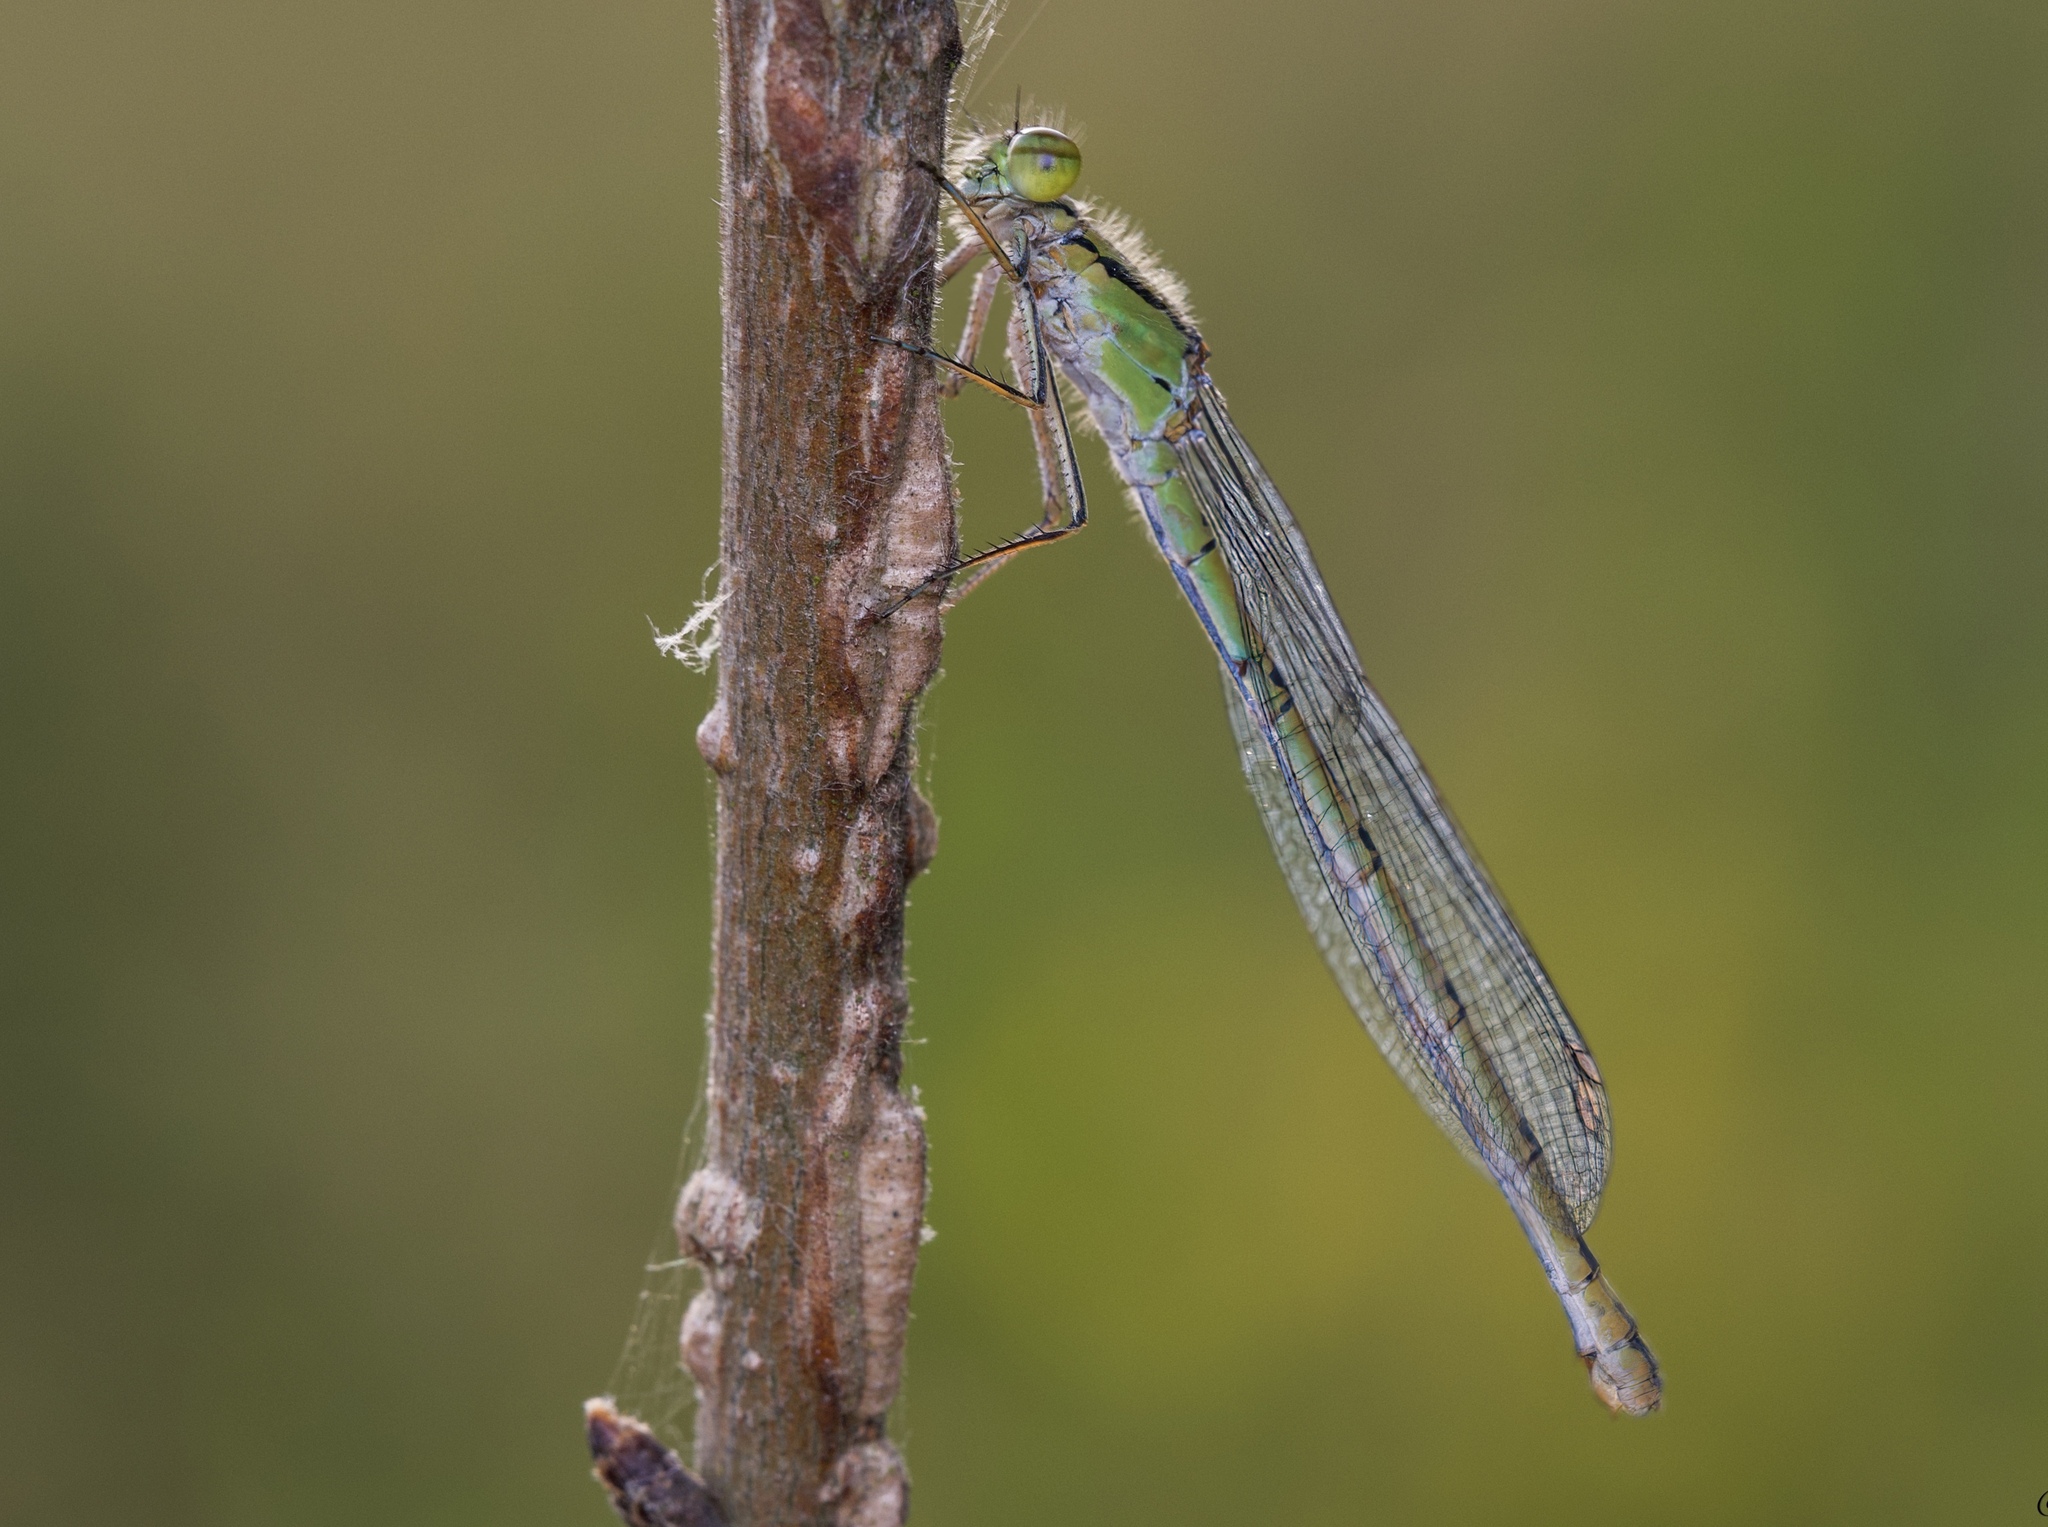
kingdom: Animalia
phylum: Arthropoda
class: Insecta
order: Odonata
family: Coenagrionidae
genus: Enallagma
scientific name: Enallagma cyathigerum
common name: Common blue damselfly
